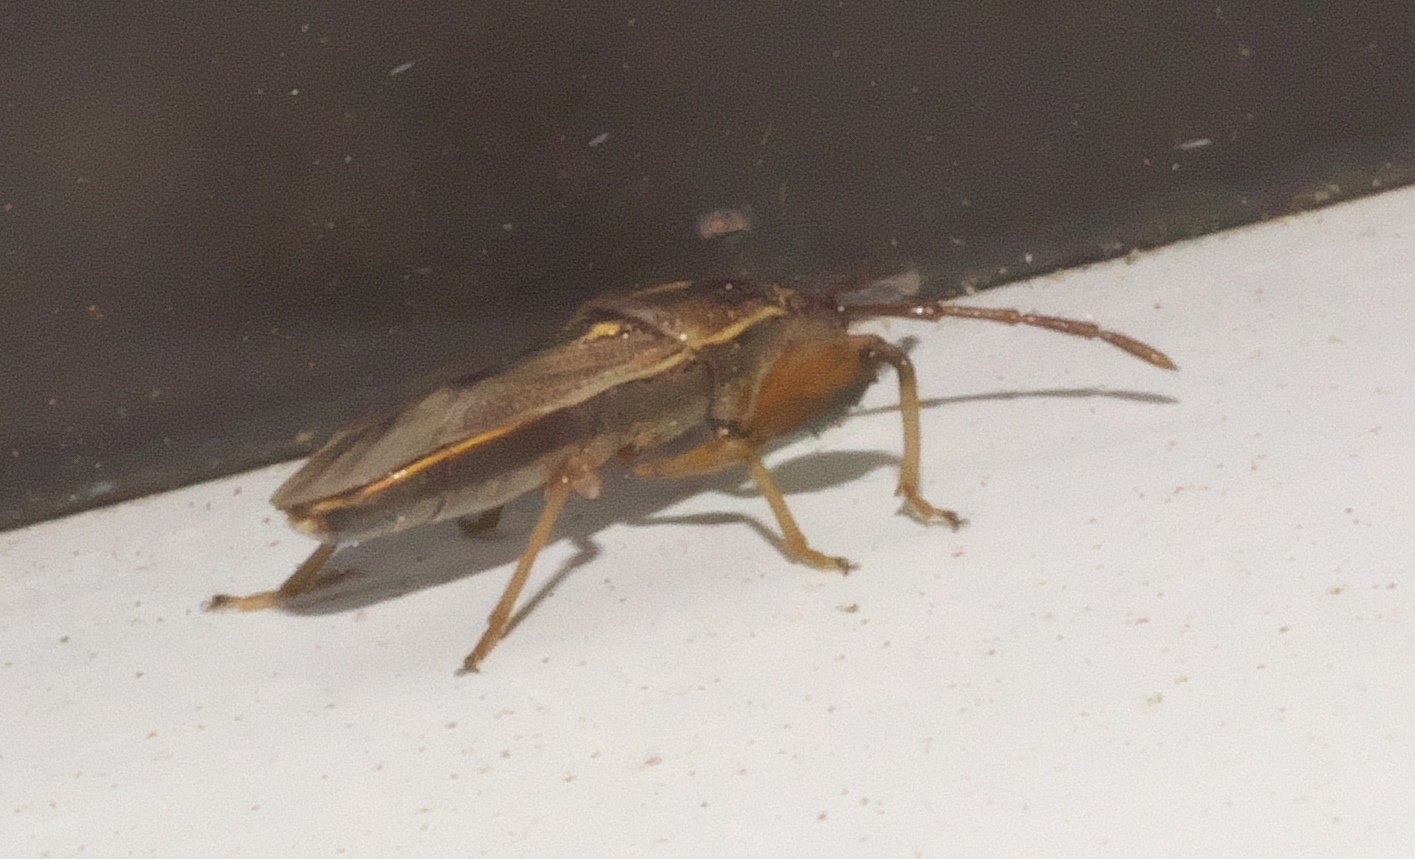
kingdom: Animalia
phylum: Arthropoda
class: Insecta
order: Hemiptera
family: Pachygronthidae
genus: Oedancala
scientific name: Oedancala dorsalis
